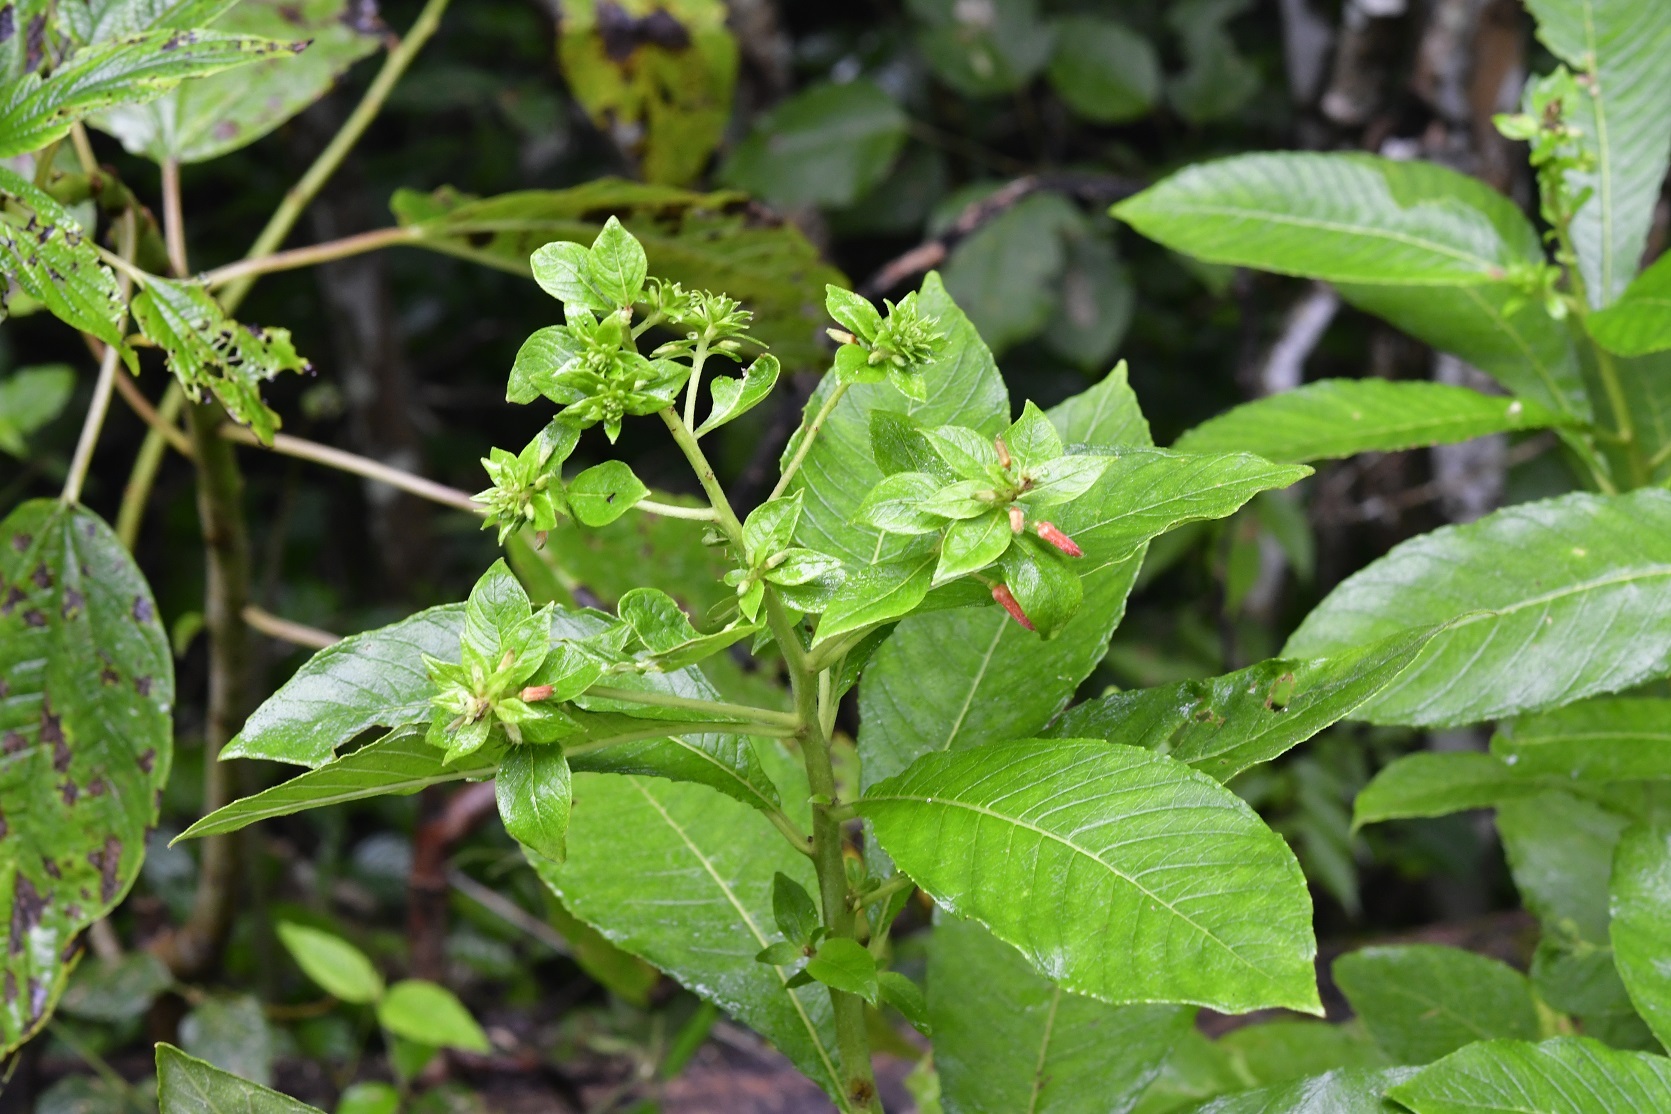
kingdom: Plantae
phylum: Tracheophyta
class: Magnoliopsida
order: Myrtales
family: Onagraceae
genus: Lopezia
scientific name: Lopezia grandiflora
